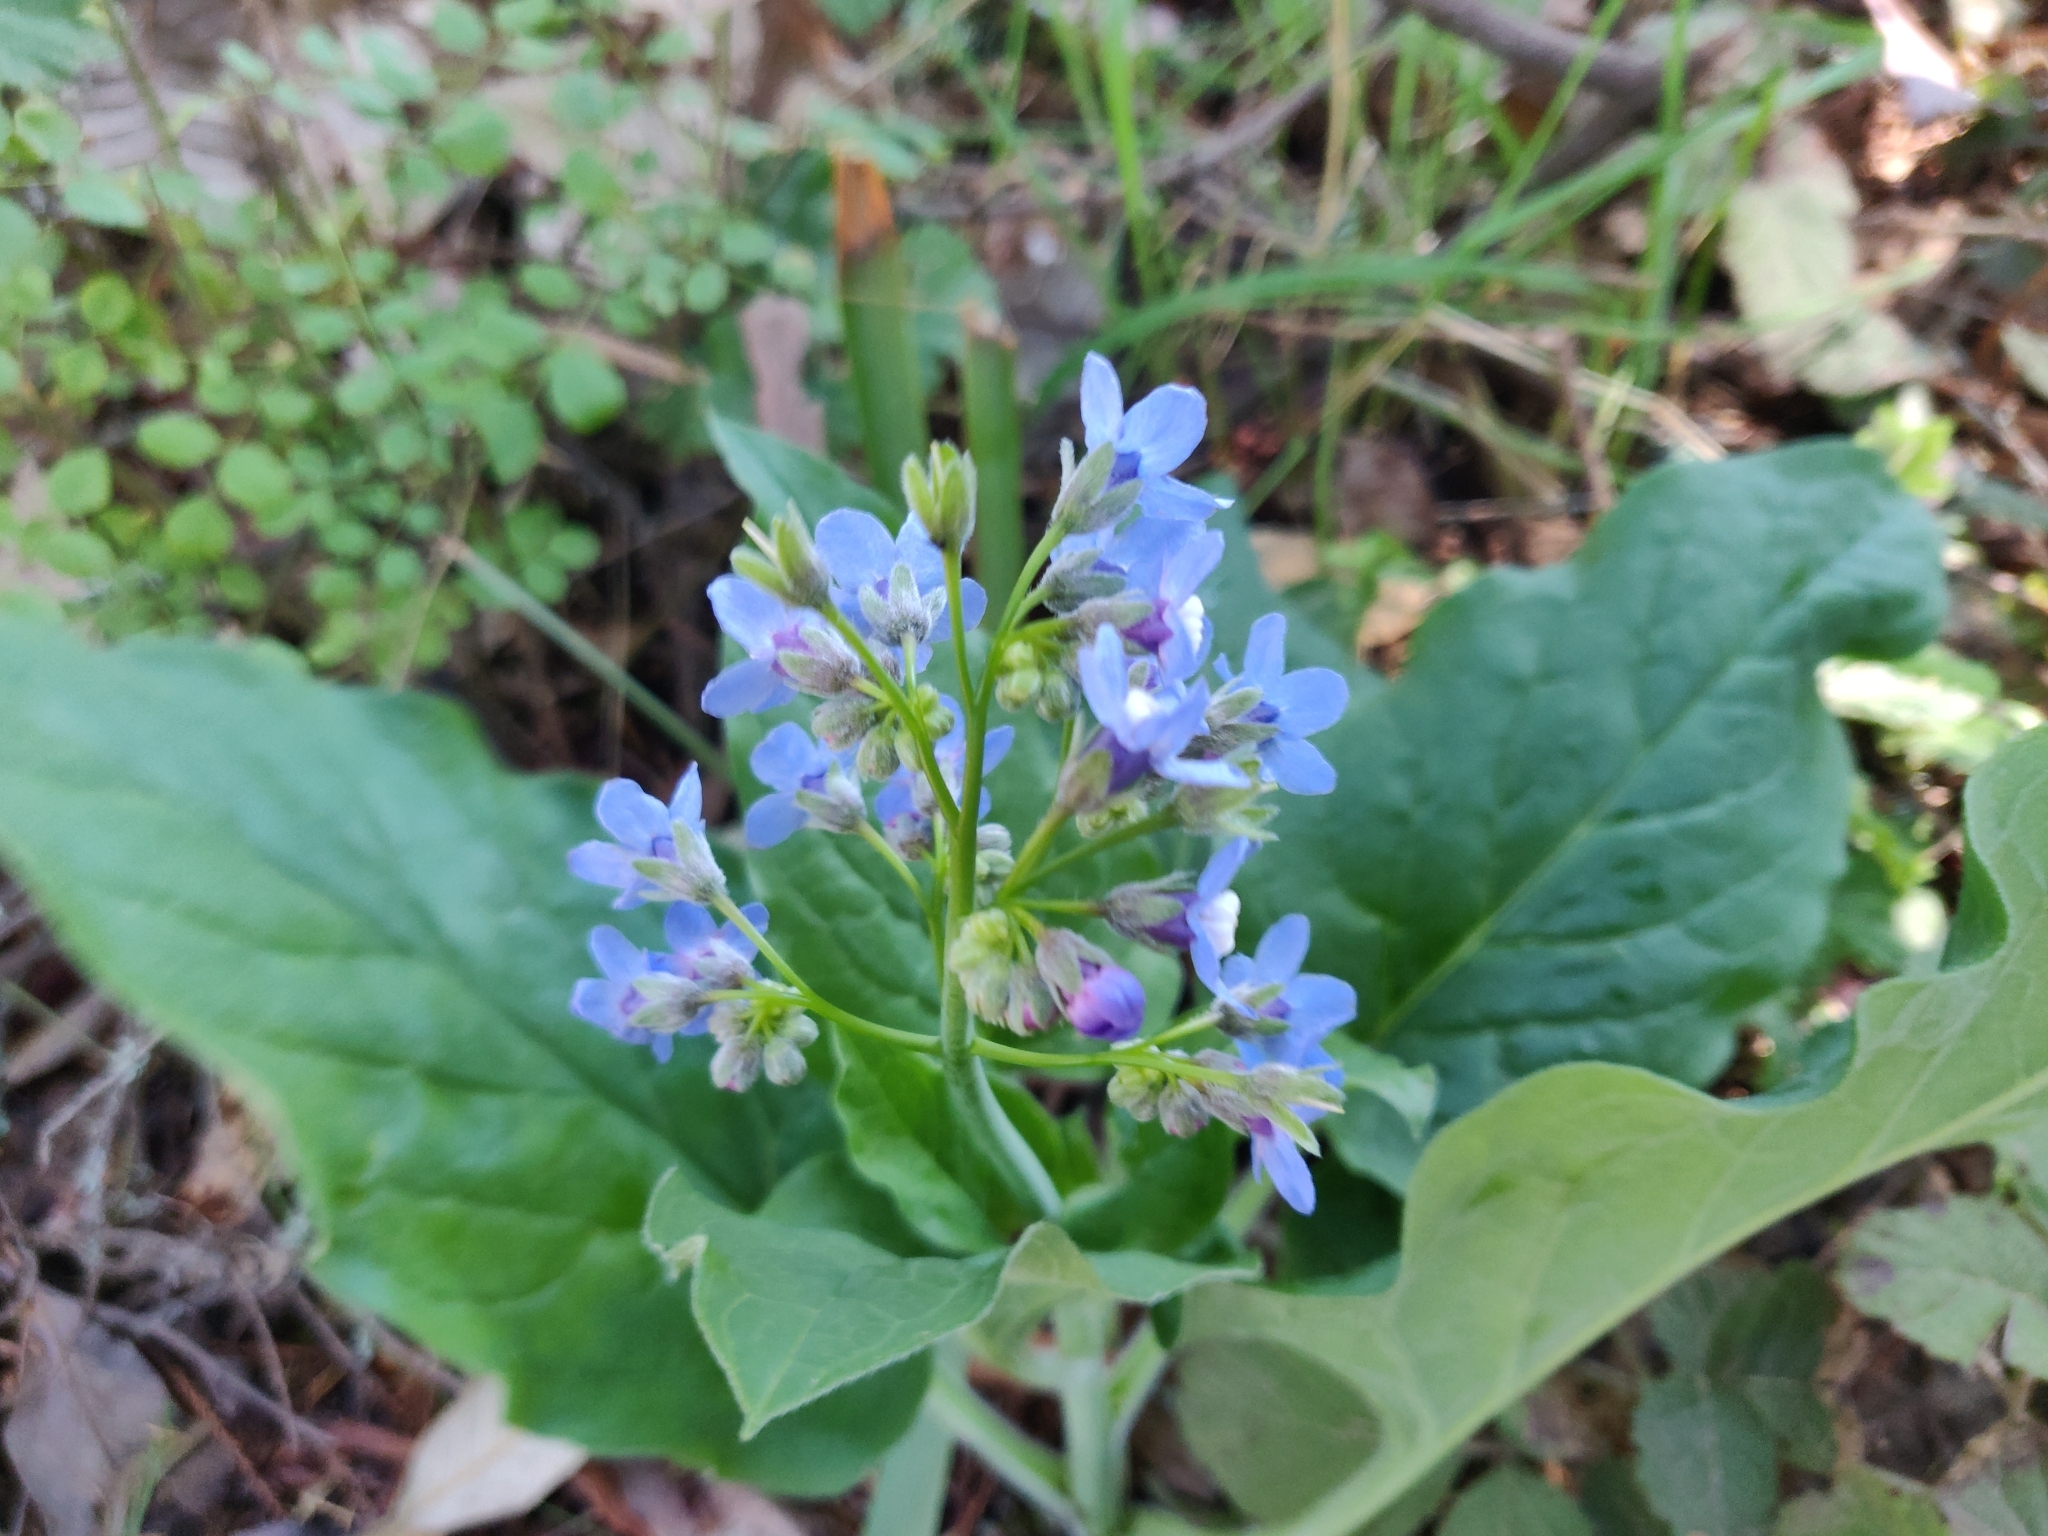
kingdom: Plantae
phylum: Tracheophyta
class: Magnoliopsida
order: Boraginales
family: Boraginaceae
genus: Adelinia
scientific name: Adelinia grande
